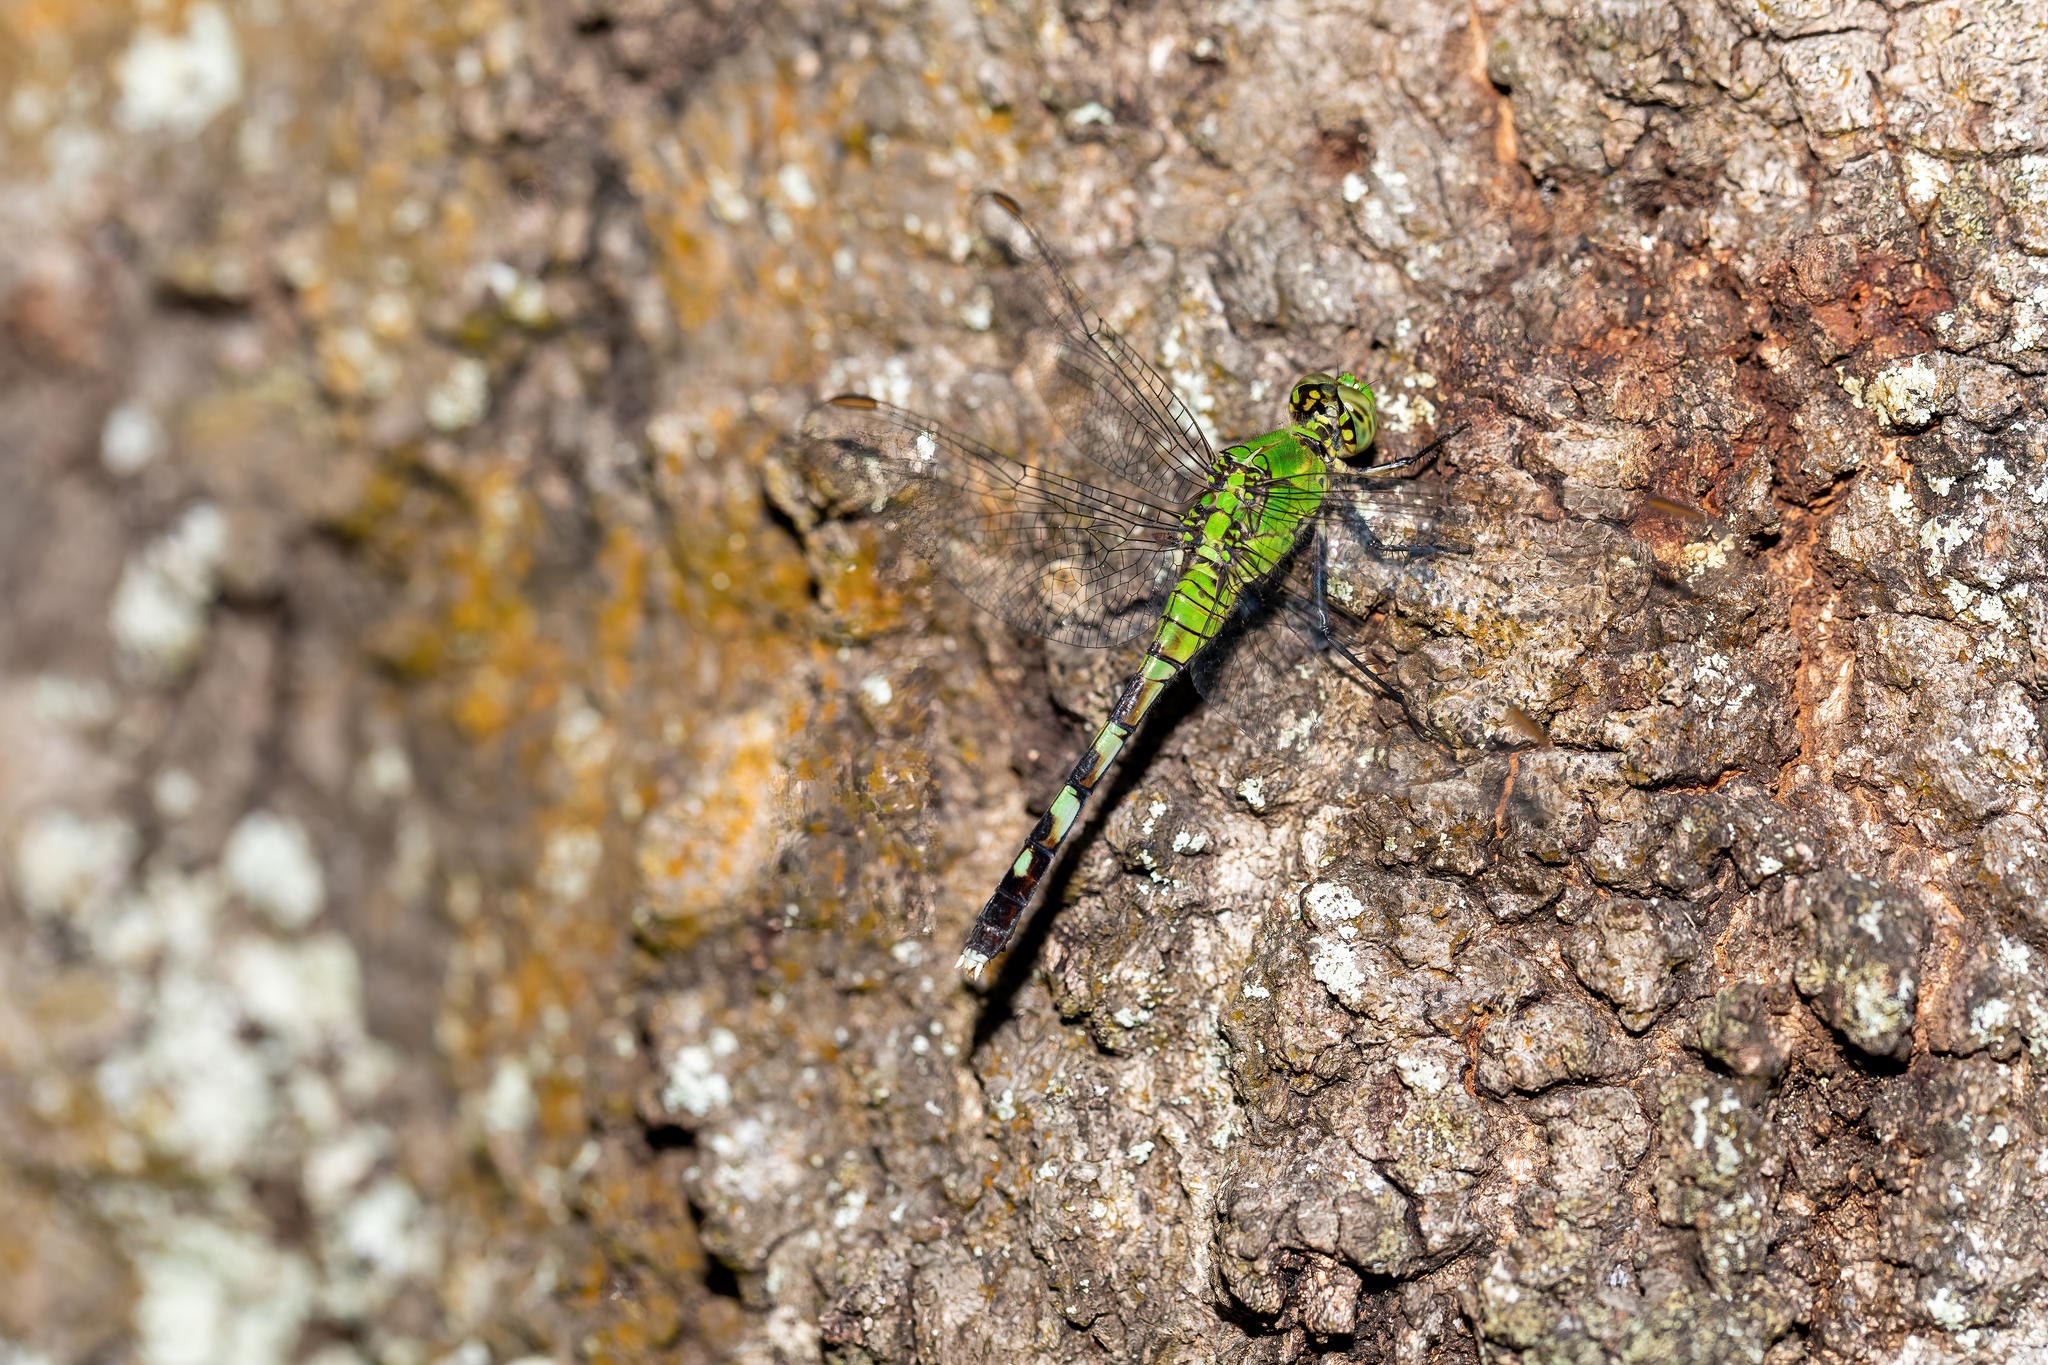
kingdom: Animalia
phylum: Arthropoda
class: Insecta
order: Odonata
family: Libellulidae
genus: Erythemis
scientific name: Erythemis simplicicollis
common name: Eastern pondhawk
